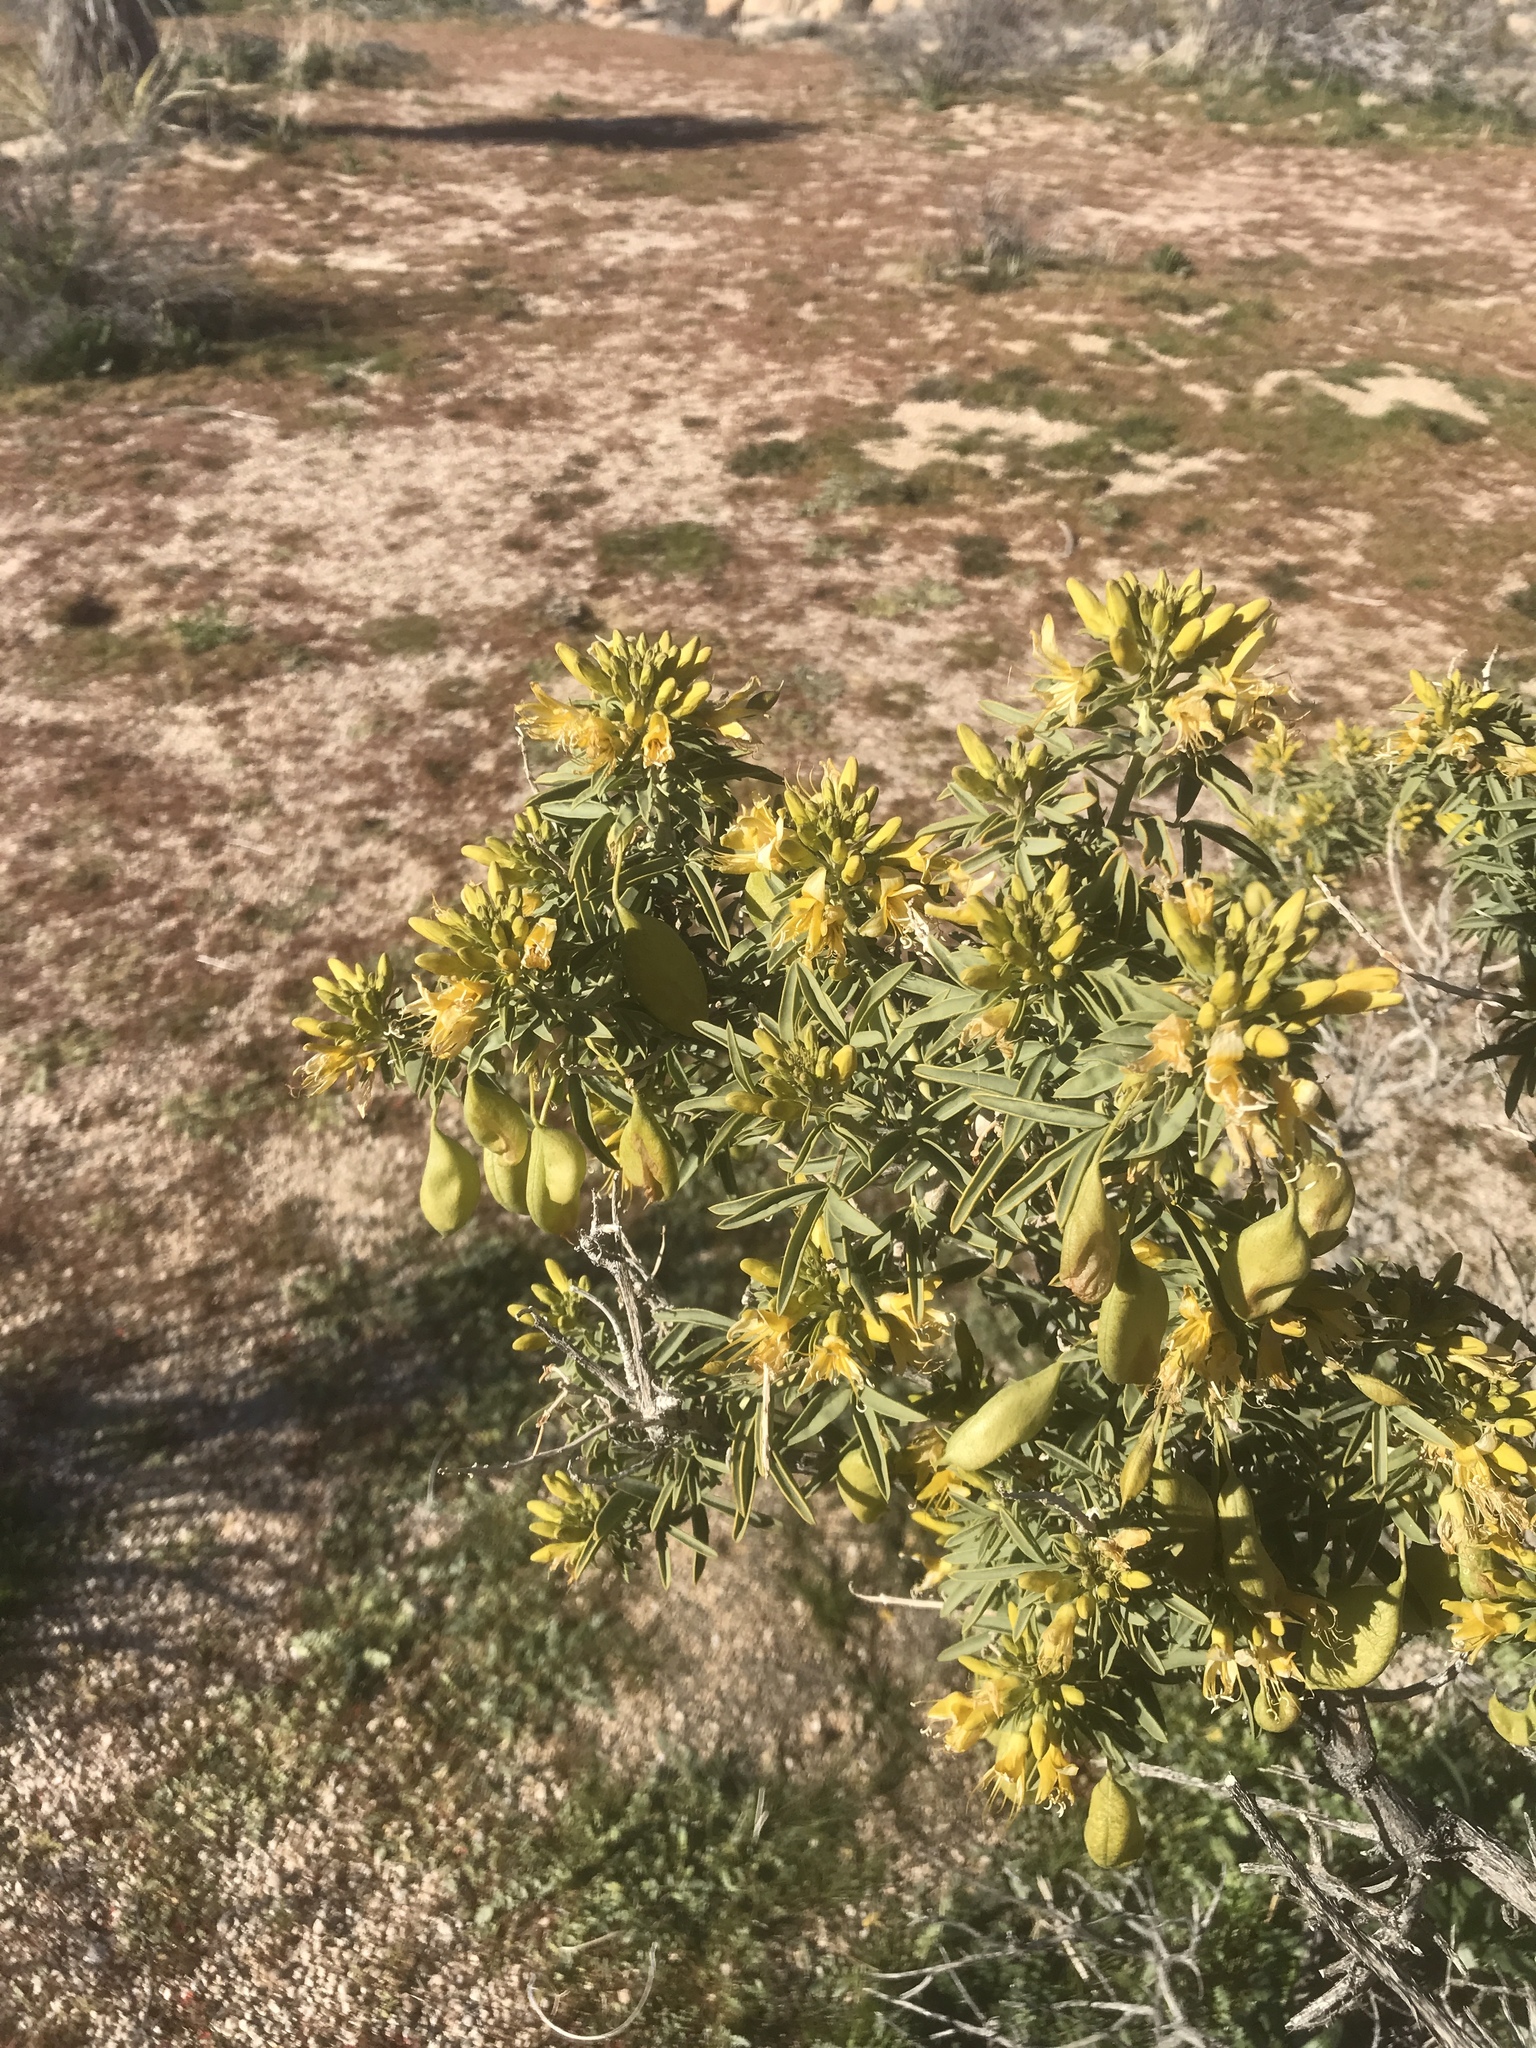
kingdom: Plantae
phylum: Tracheophyta
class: Magnoliopsida
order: Brassicales
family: Cleomaceae
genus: Cleomella
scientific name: Cleomella arborea
